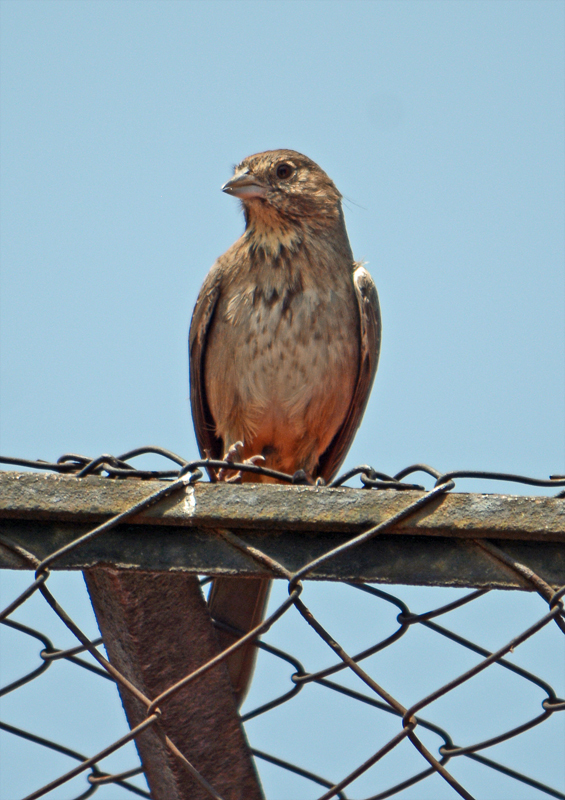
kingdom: Animalia
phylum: Chordata
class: Aves
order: Passeriformes
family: Passerellidae
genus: Melozone
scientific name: Melozone fusca
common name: Canyon towhee
